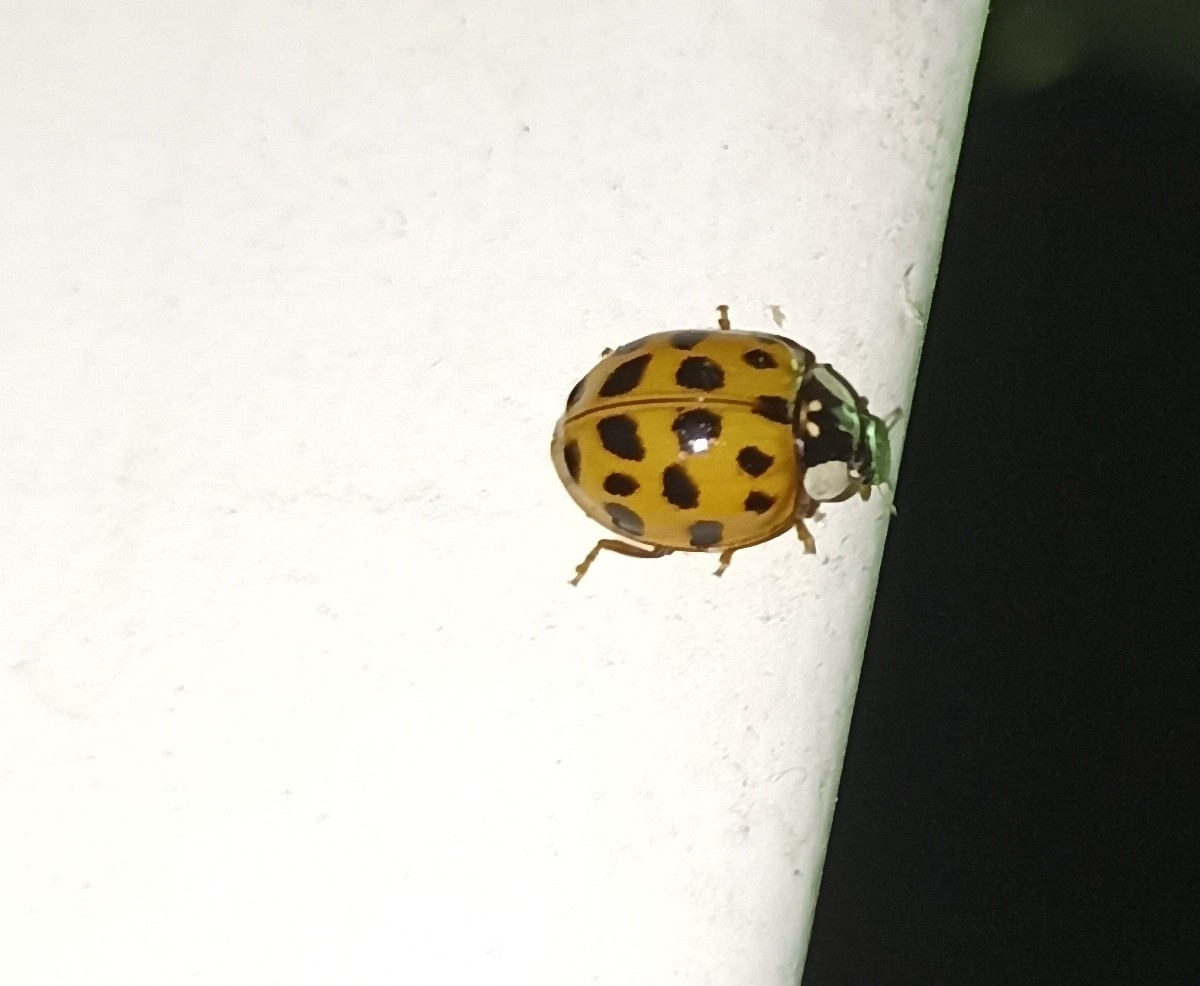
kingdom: Animalia
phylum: Arthropoda
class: Insecta
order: Coleoptera
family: Coccinellidae
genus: Harmonia
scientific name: Harmonia axyridis
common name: Harlequin ladybird
